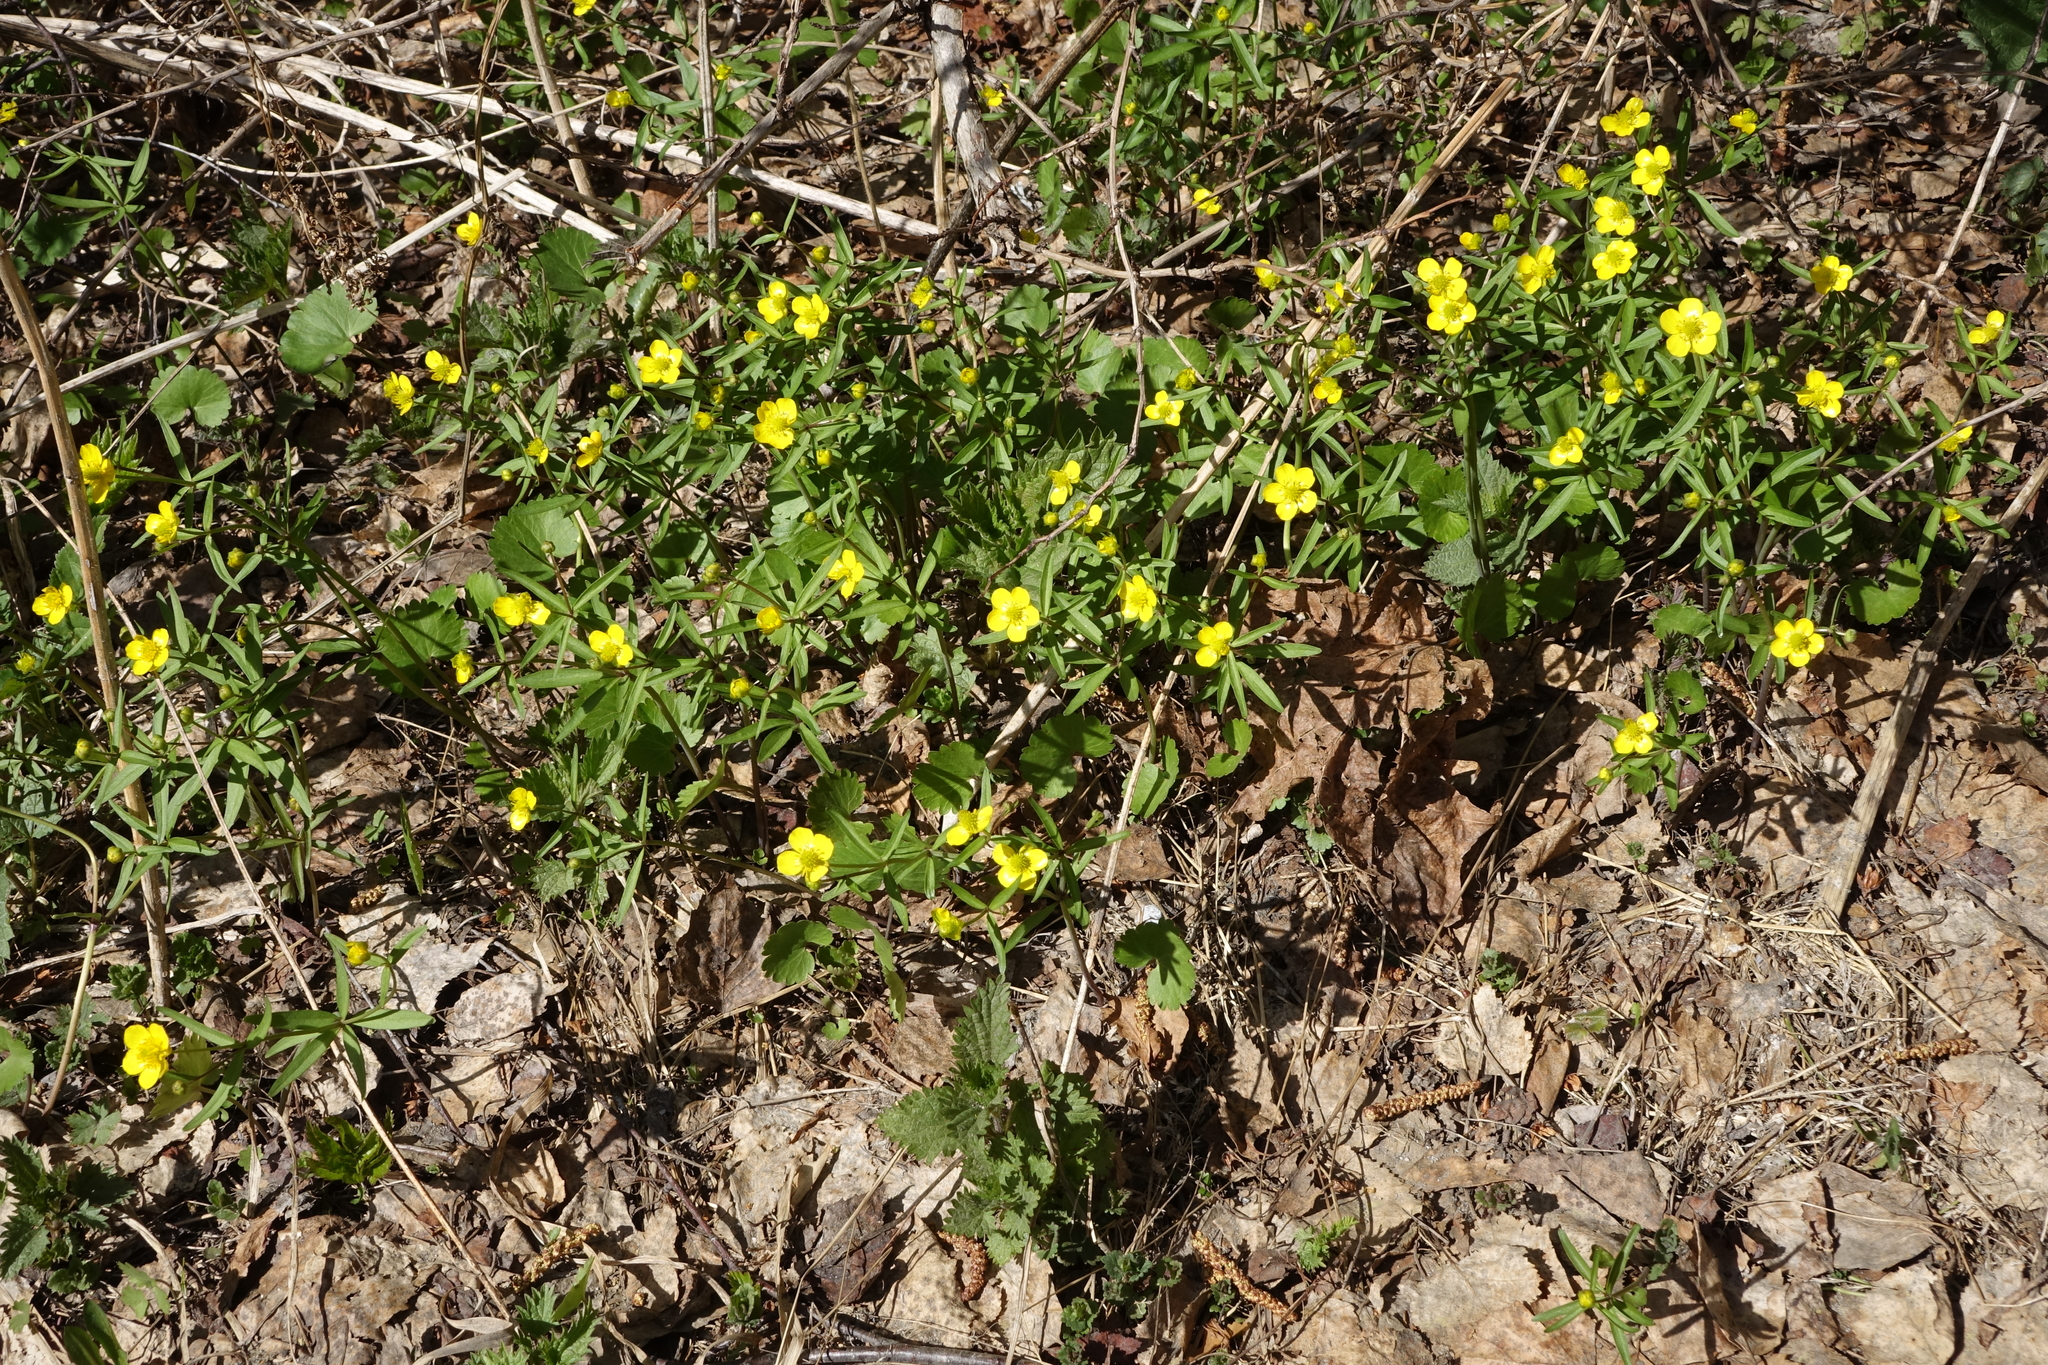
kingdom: Plantae
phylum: Tracheophyta
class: Magnoliopsida
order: Ranunculales
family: Ranunculaceae
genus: Ranunculus
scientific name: Ranunculus monophyllus
